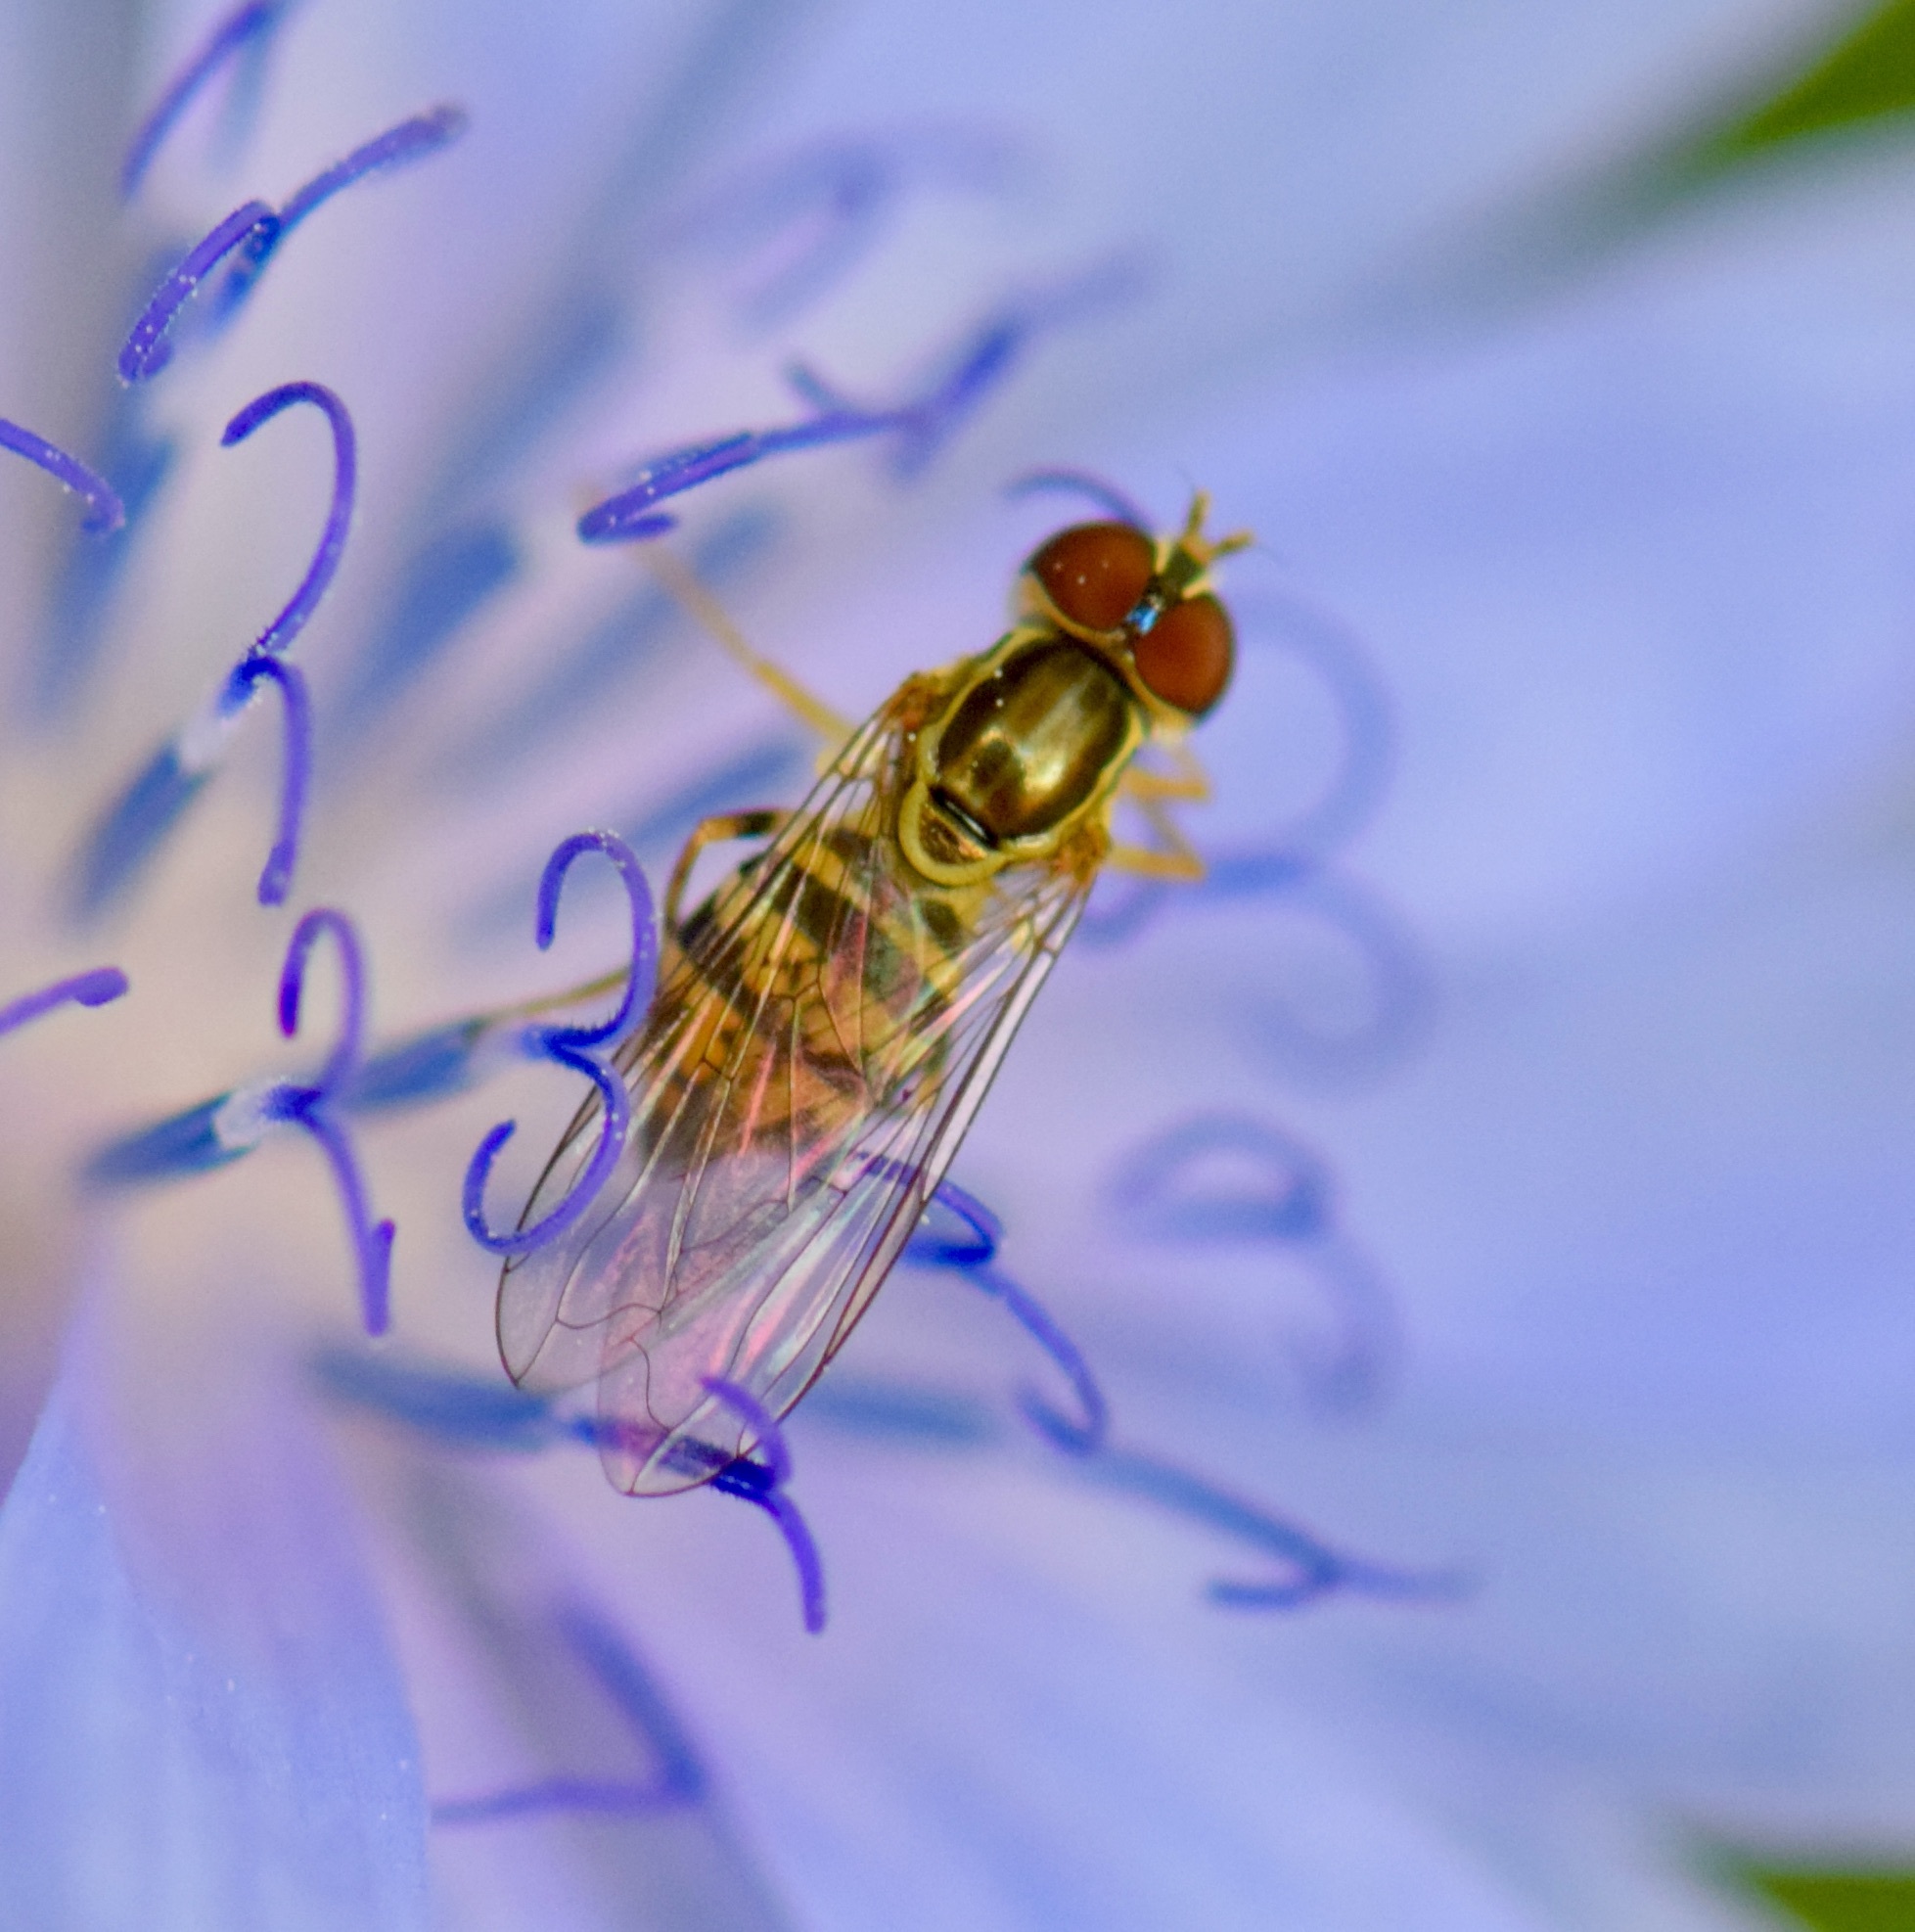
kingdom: Animalia
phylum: Arthropoda
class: Insecta
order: Diptera
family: Syrphidae
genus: Toxomerus
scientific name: Toxomerus geminatus
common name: Eastern calligrapher
